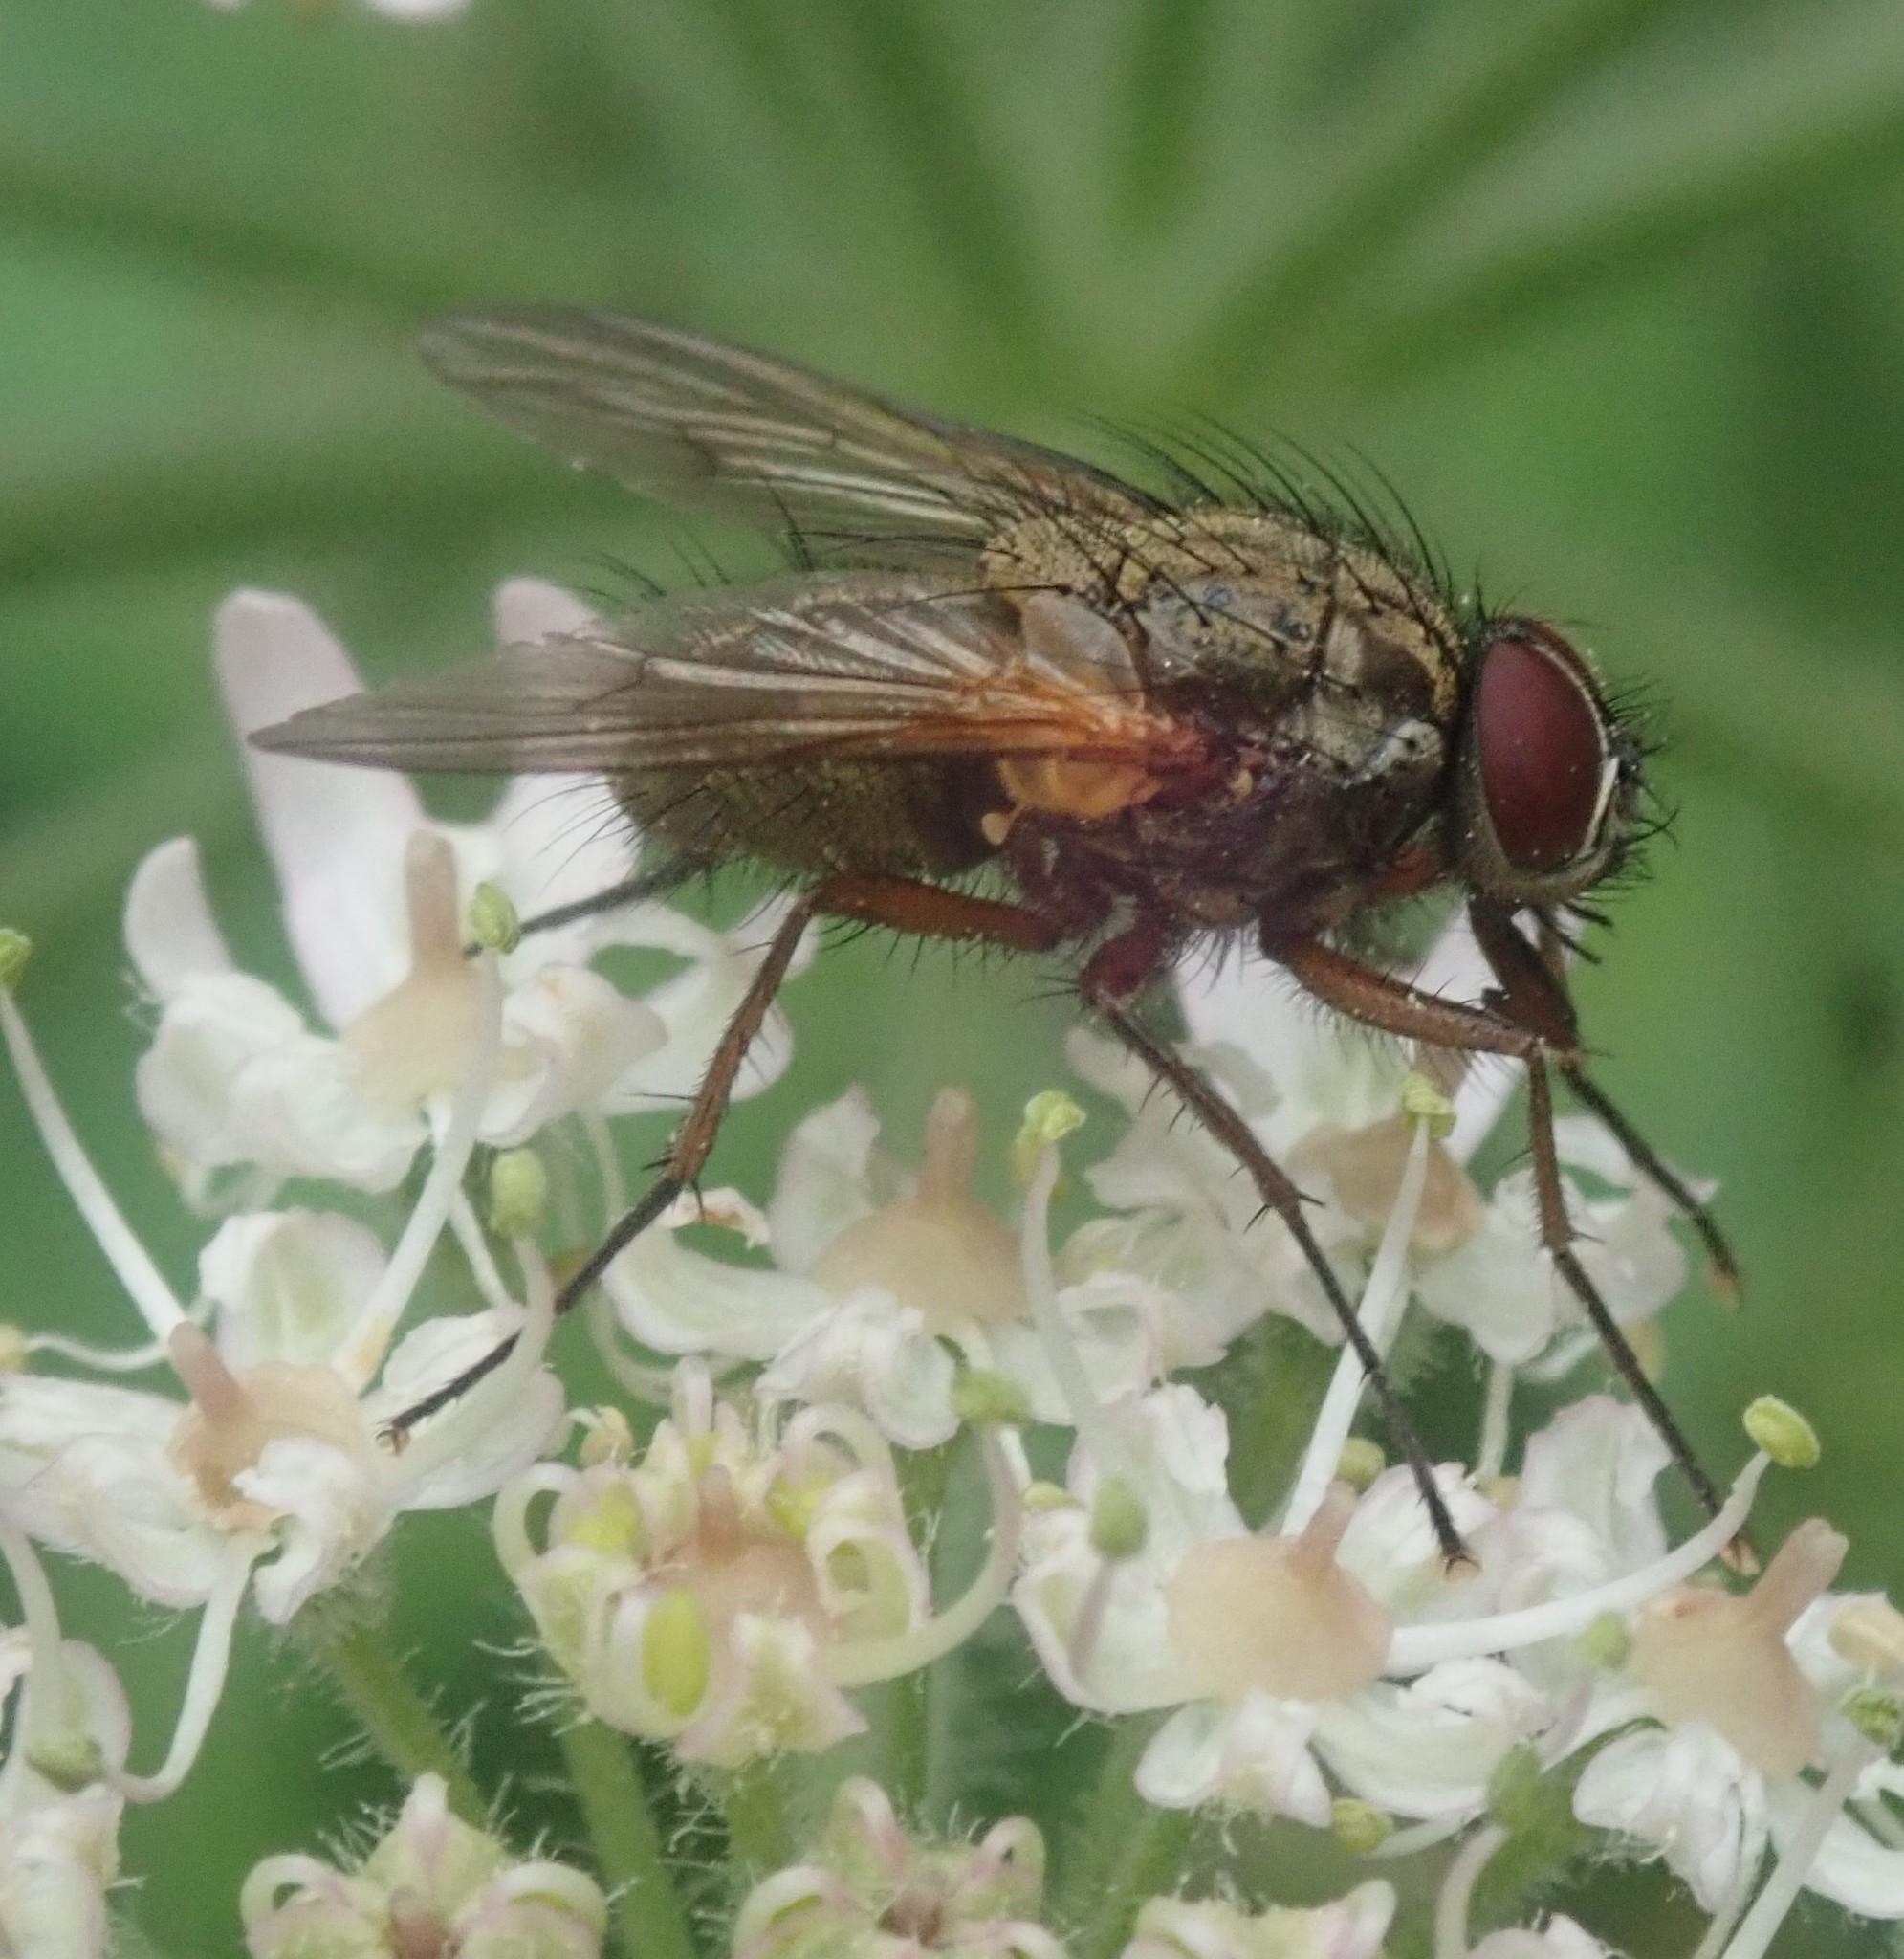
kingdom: Animalia
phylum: Arthropoda
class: Insecta
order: Diptera
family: Muscidae
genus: Phaonia
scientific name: Phaonia angelicae
